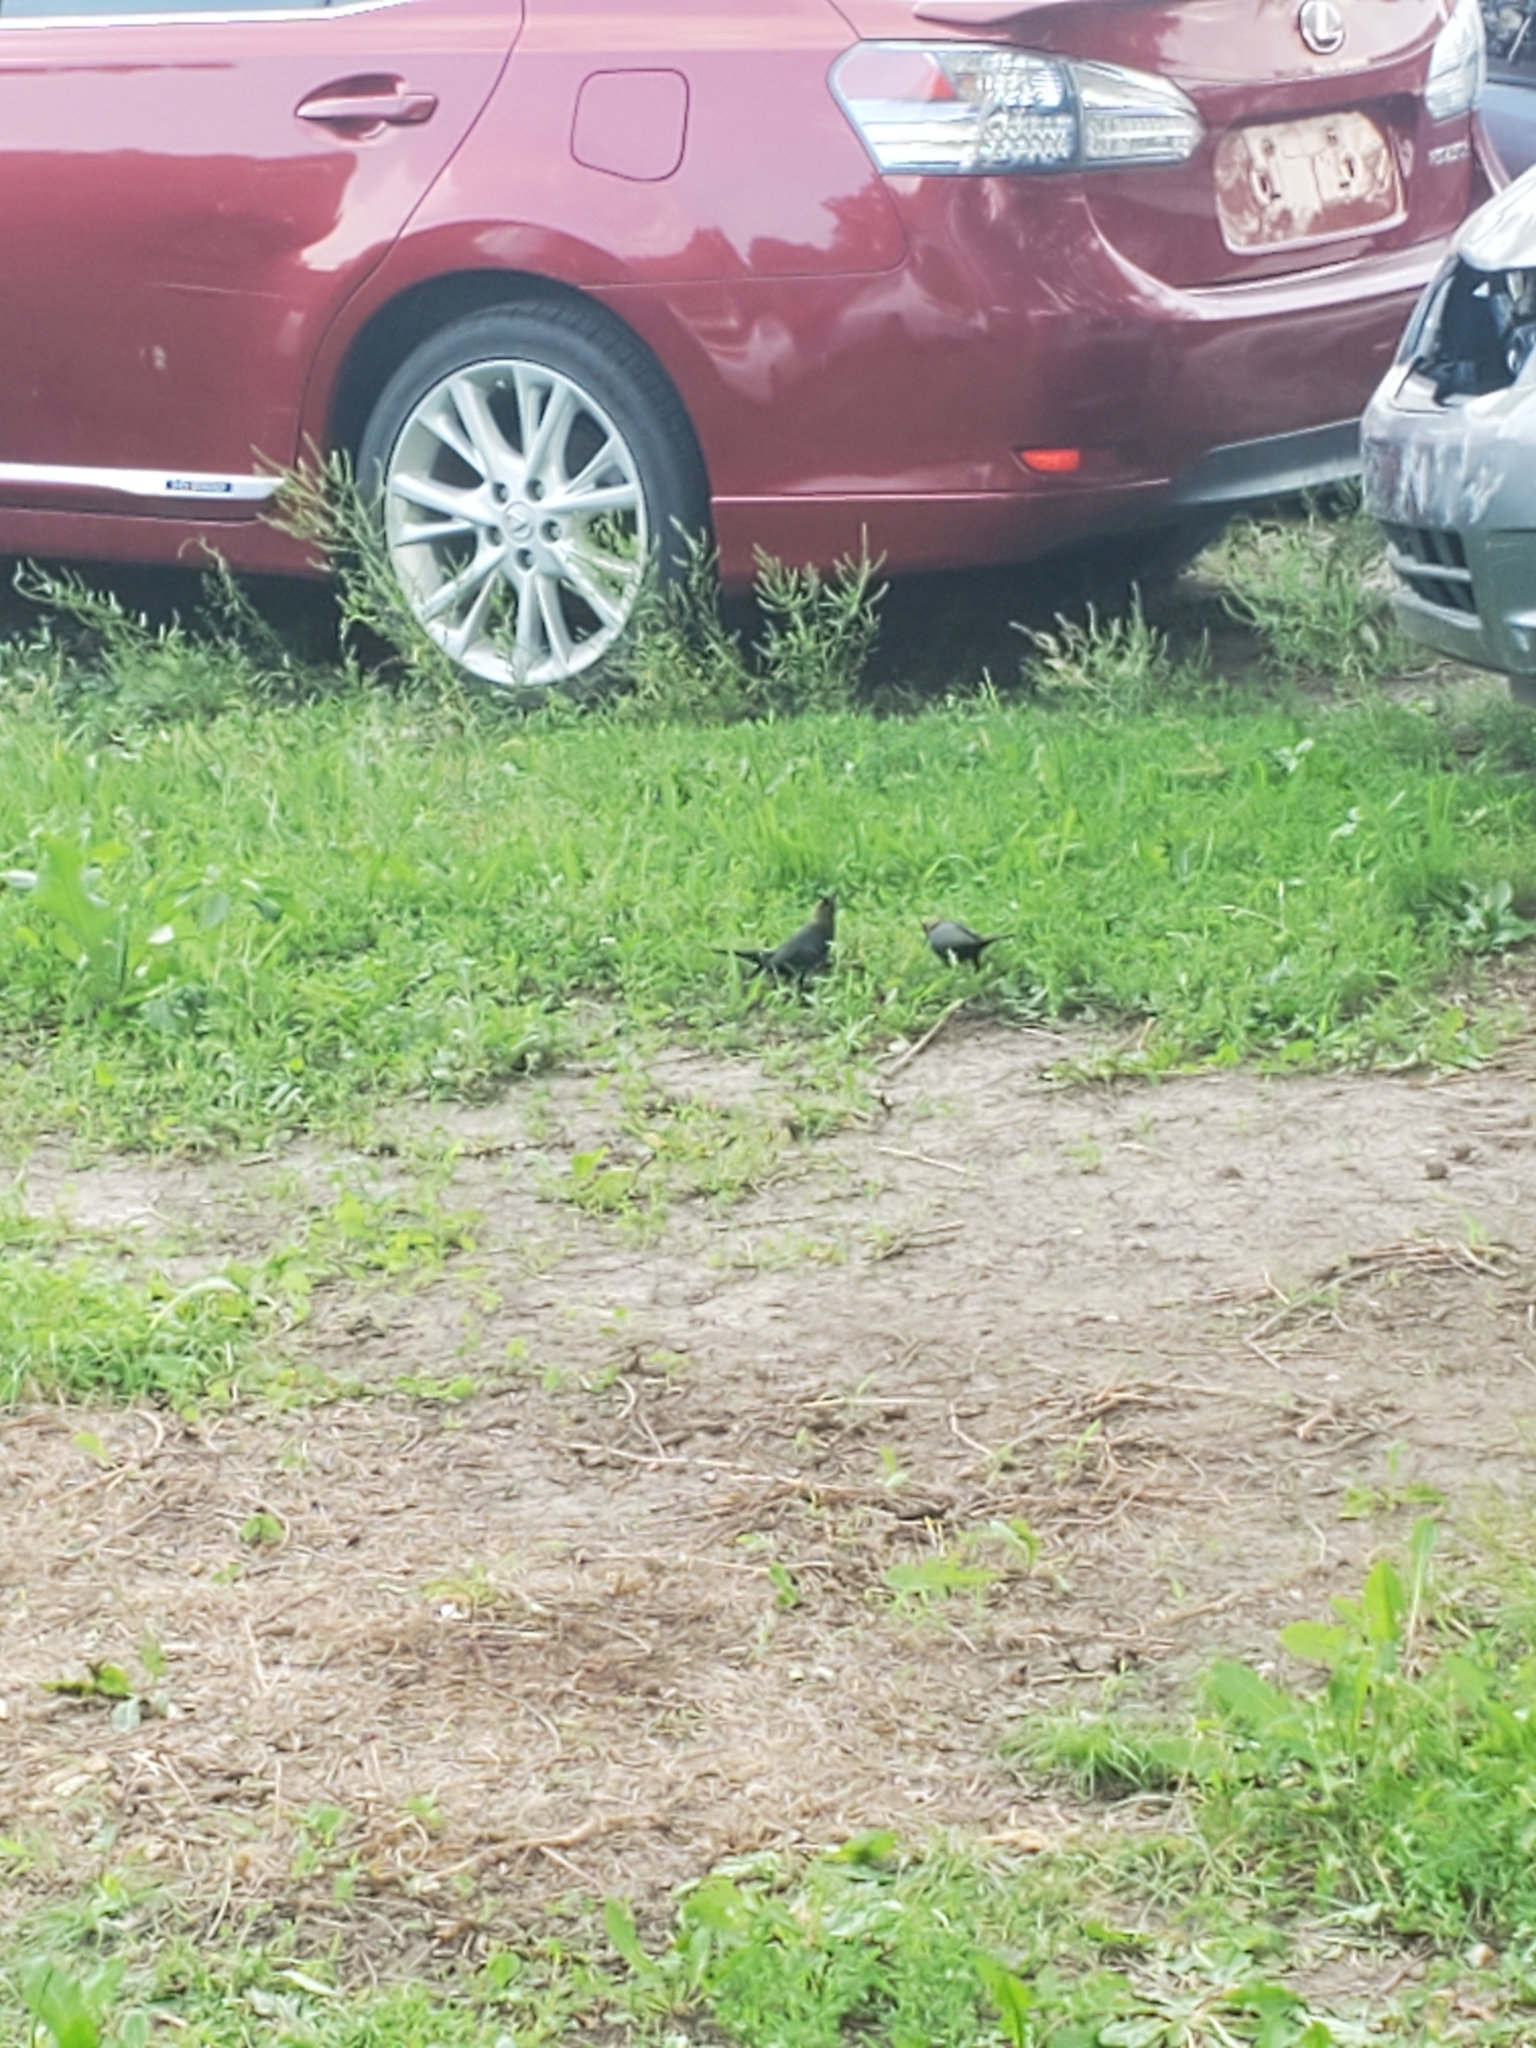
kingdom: Animalia
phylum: Chordata
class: Aves
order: Passeriformes
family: Icteridae
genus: Molothrus
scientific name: Molothrus ater
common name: Brown-headed cowbird
